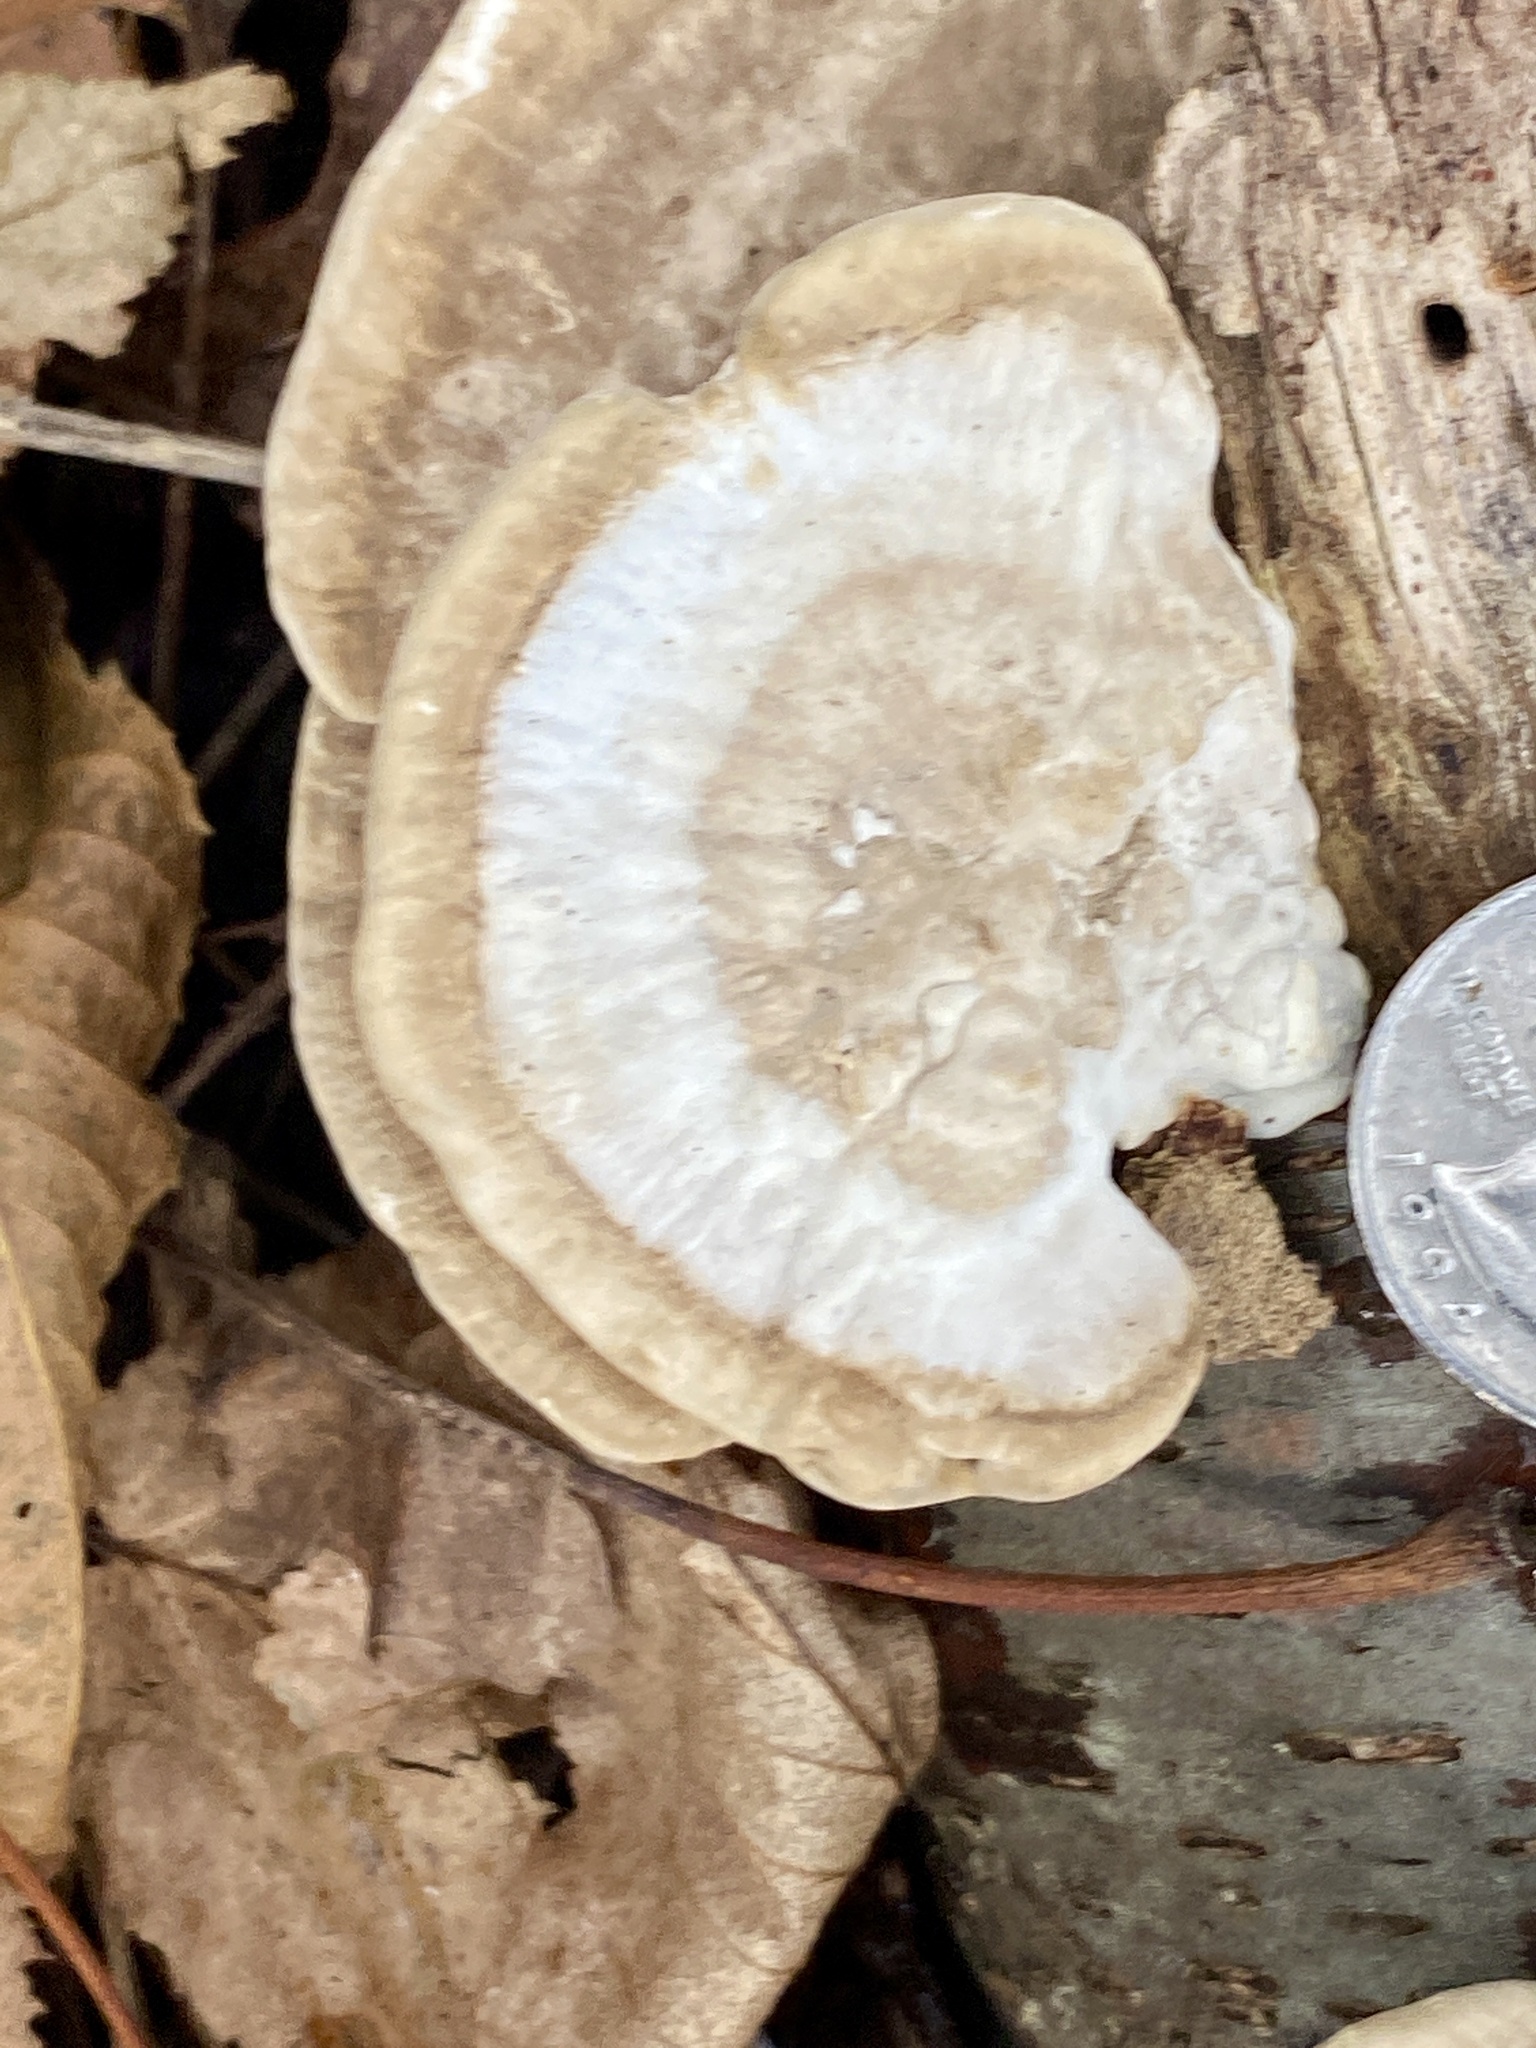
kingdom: Fungi
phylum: Basidiomycota
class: Agaricomycetes
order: Polyporales
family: Polyporaceae
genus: Trametes
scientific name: Trametes lactinea
